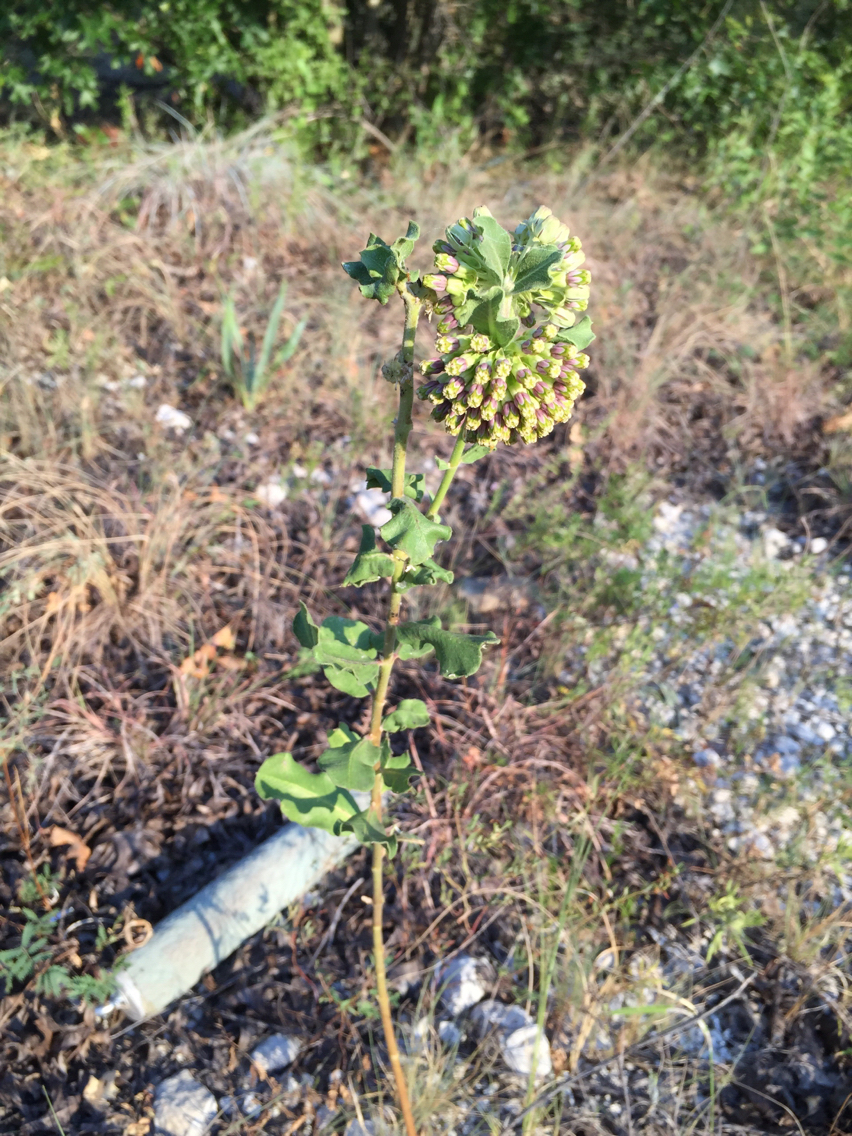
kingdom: Plantae
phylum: Tracheophyta
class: Magnoliopsida
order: Gentianales
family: Apocynaceae
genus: Asclepias
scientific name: Asclepias viridiflora
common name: Green comet milkweed
